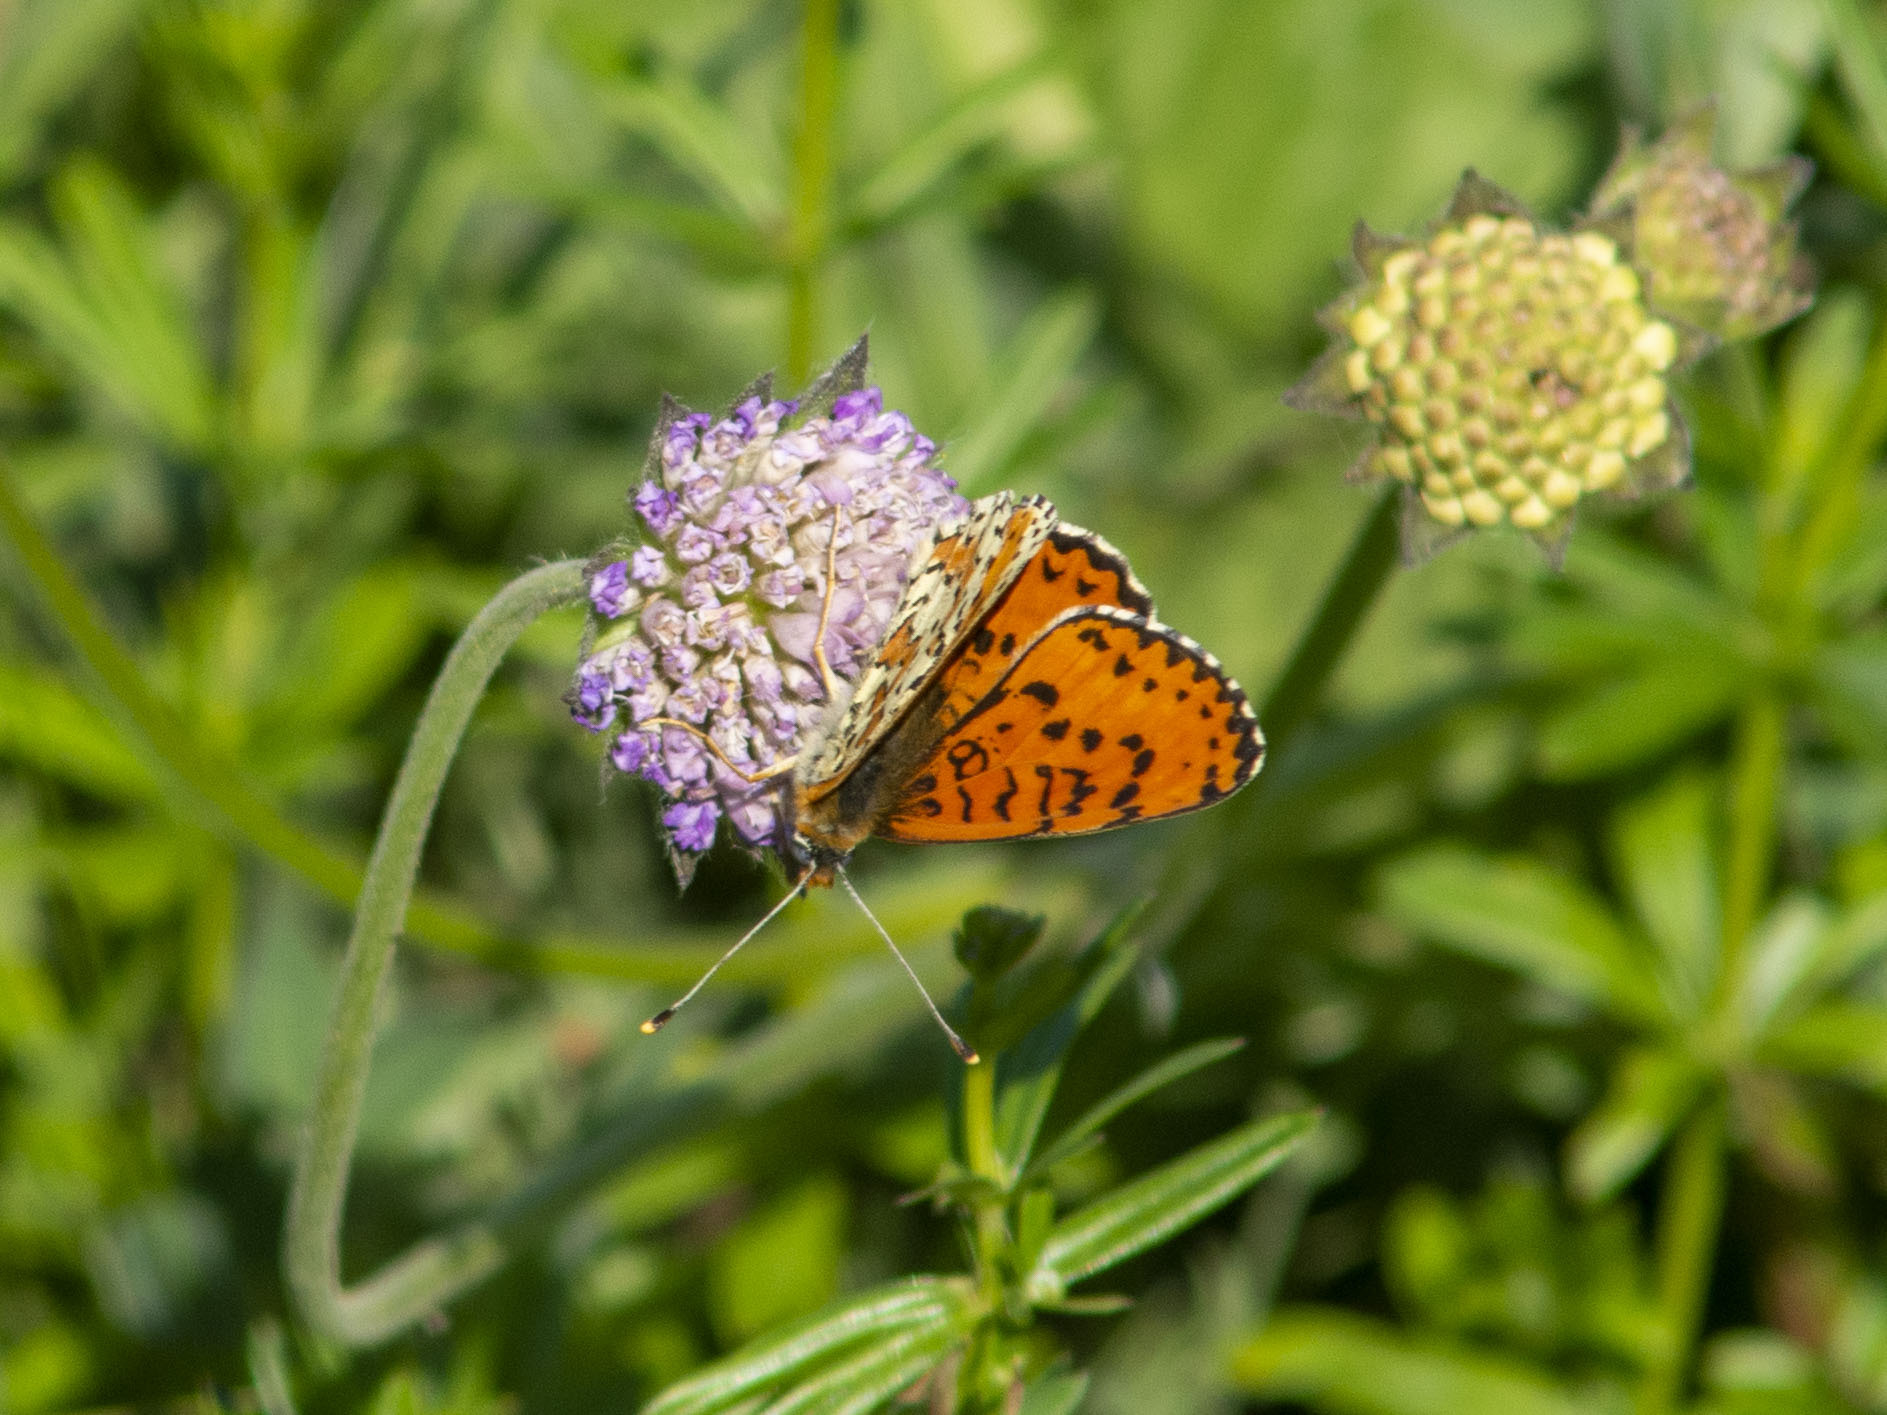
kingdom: Animalia
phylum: Arthropoda
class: Insecta
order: Lepidoptera
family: Nymphalidae
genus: Melitaea
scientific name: Melitaea didyma
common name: Spotted fritillary
